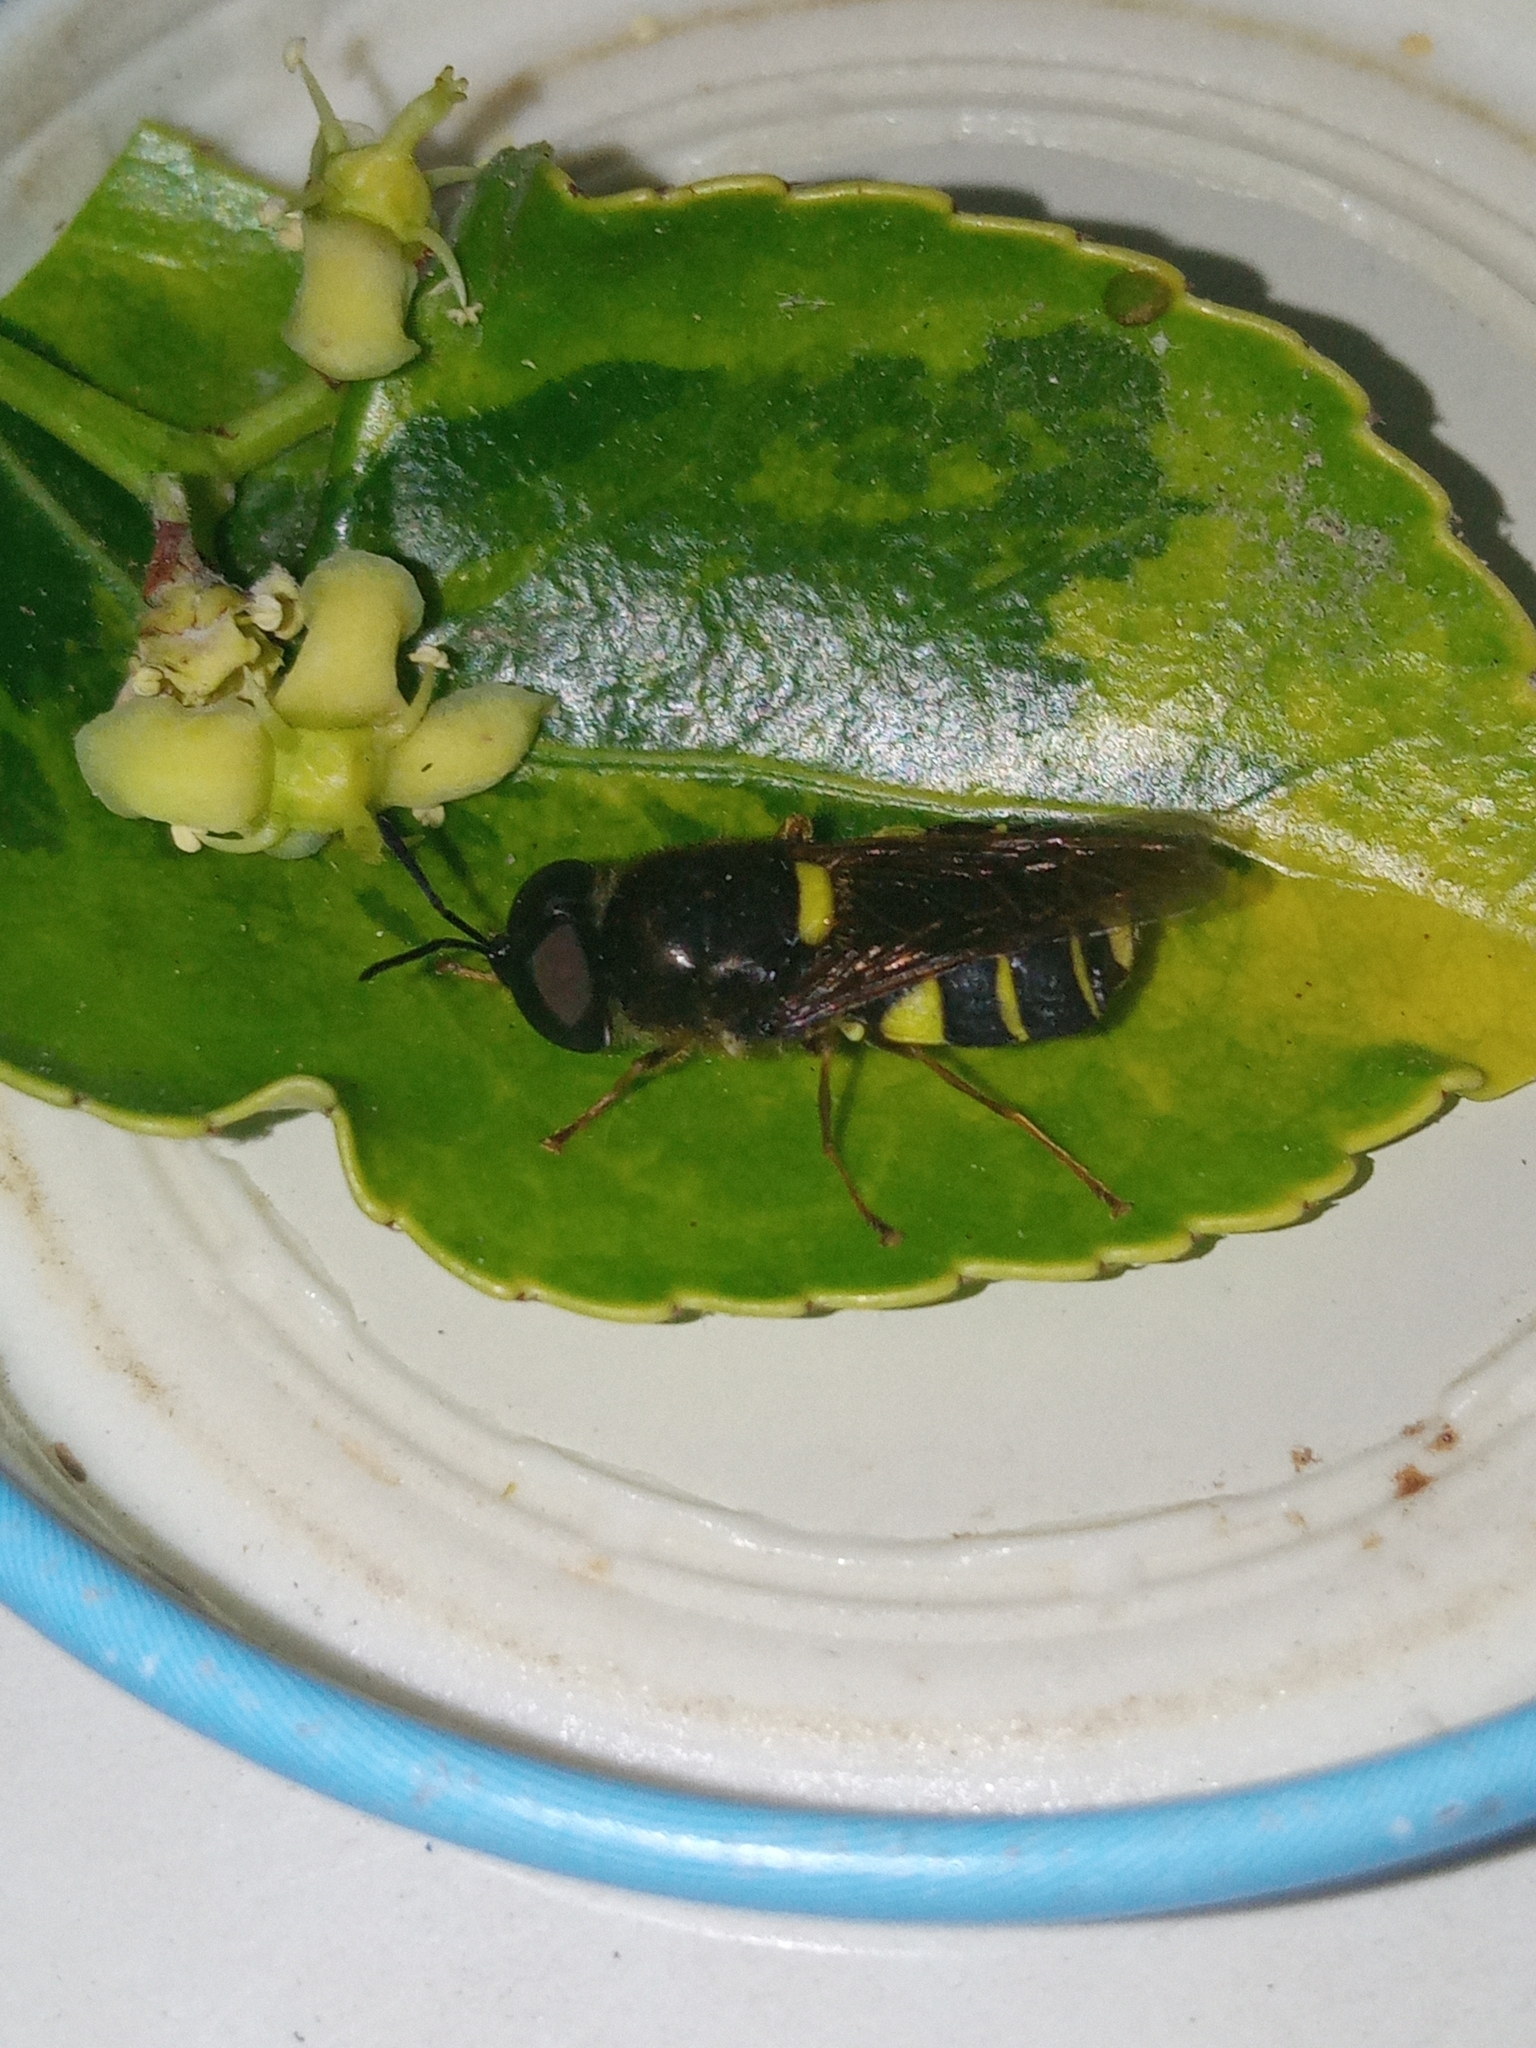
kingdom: Animalia
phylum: Arthropoda
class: Insecta
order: Diptera
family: Stratiomyidae
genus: Stratiomys
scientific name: Stratiomys potamida
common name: Banded general
